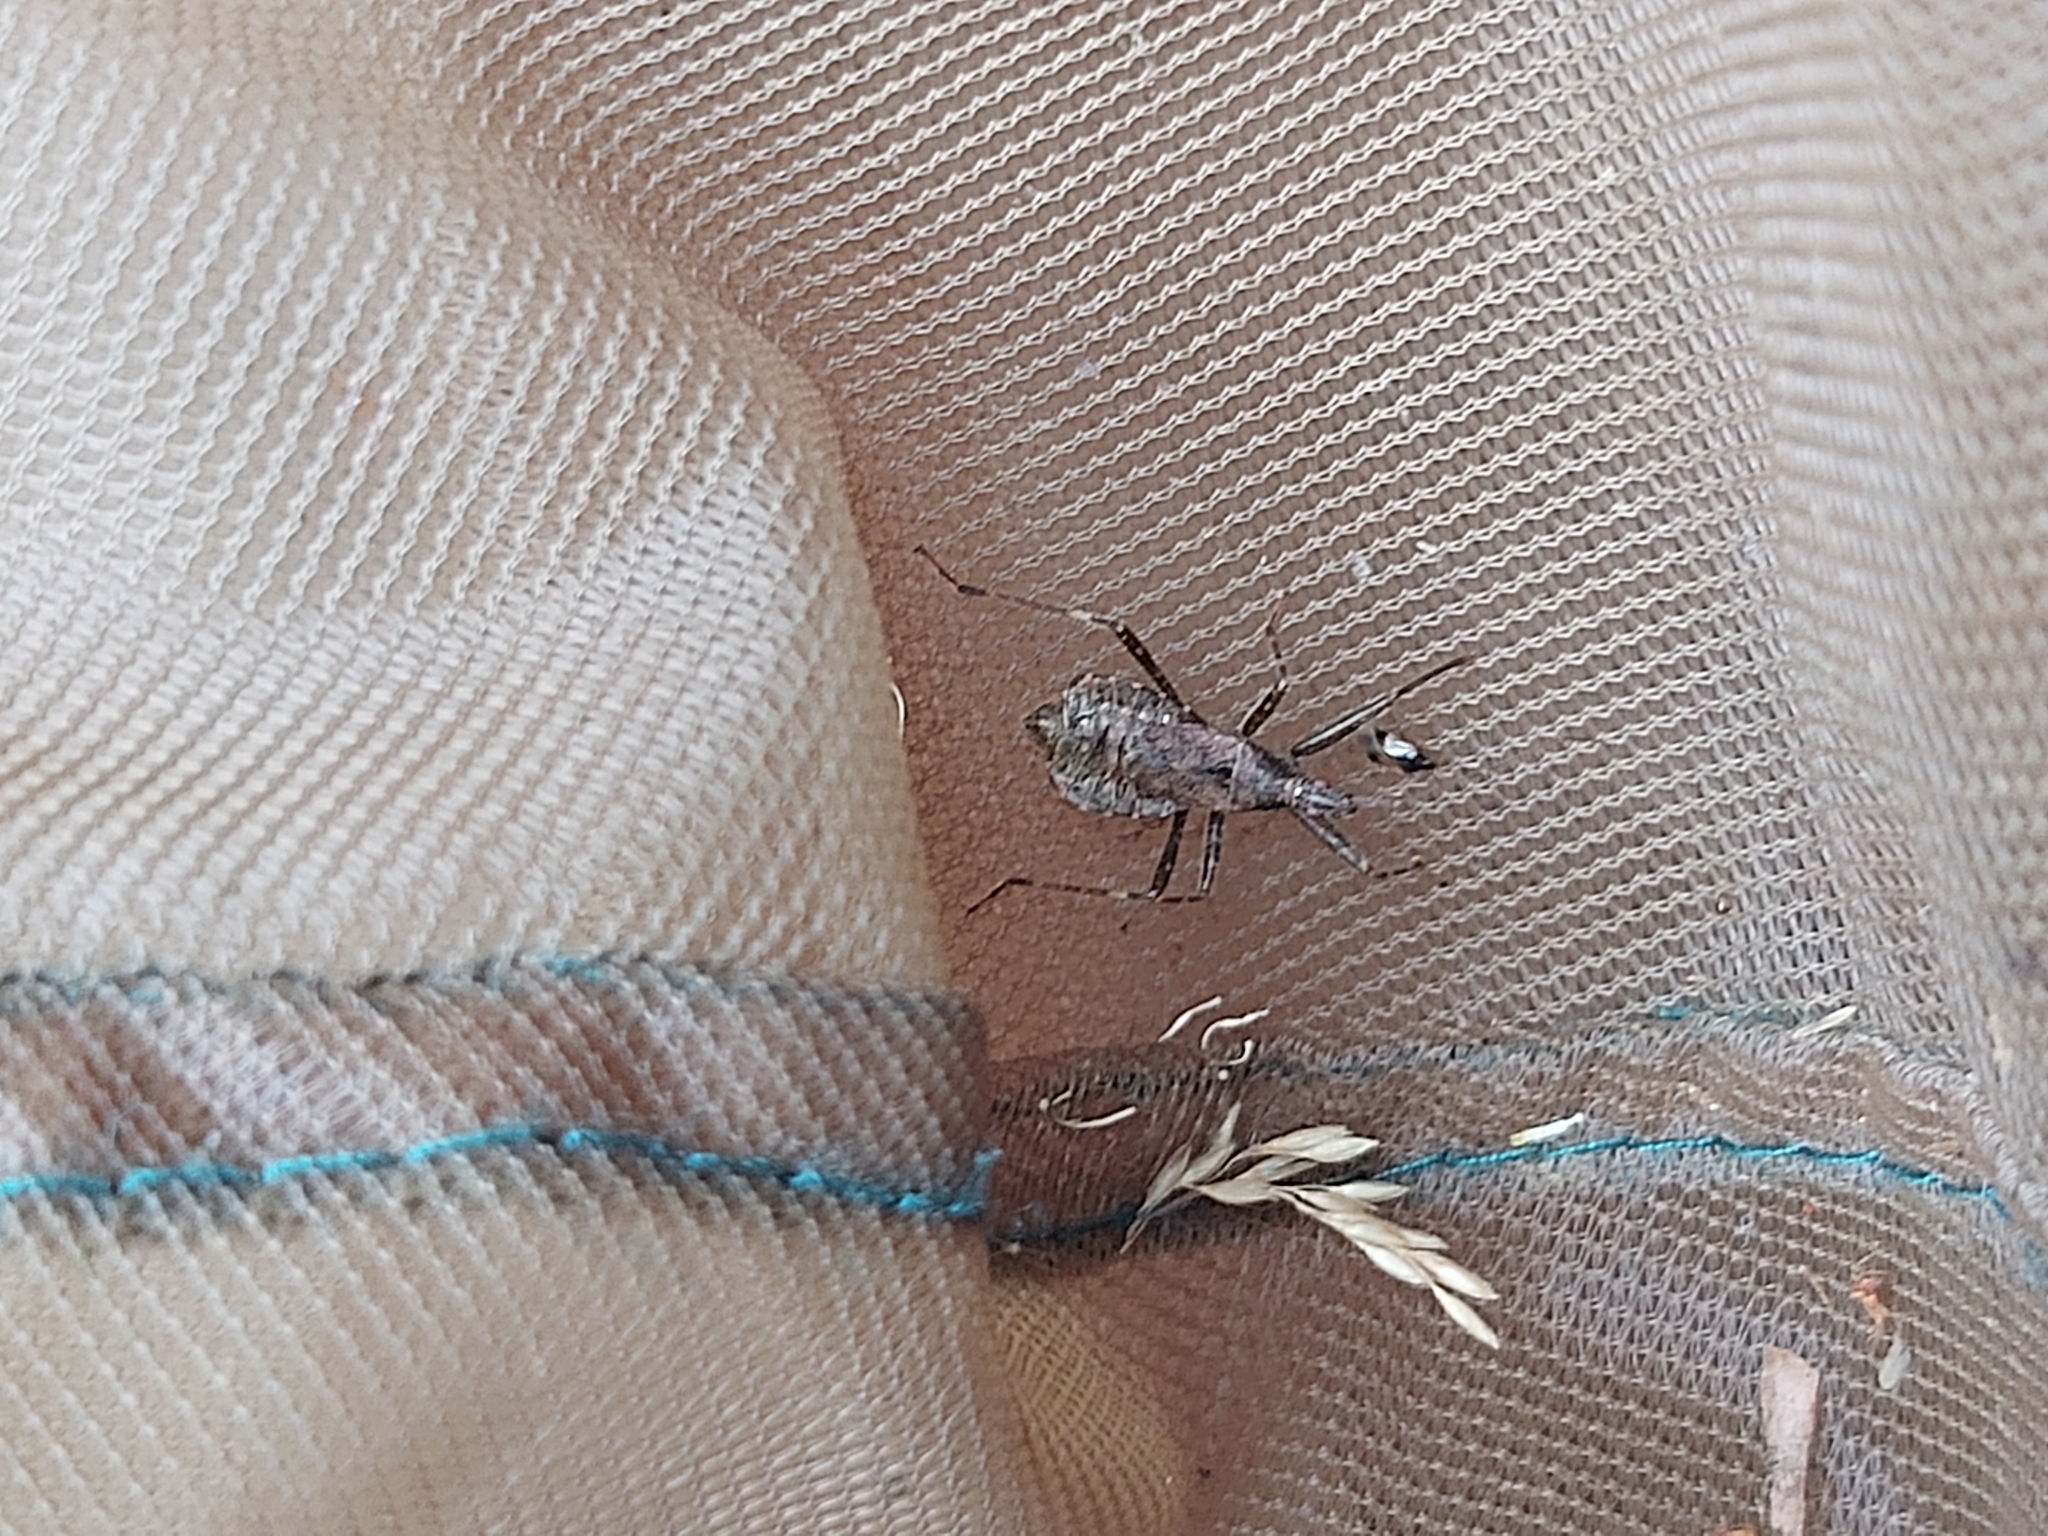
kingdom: Animalia
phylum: Arthropoda
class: Insecta
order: Hemiptera
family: Nabidae
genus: Himacerus
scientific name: Himacerus apterus
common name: Tree damsel bug
